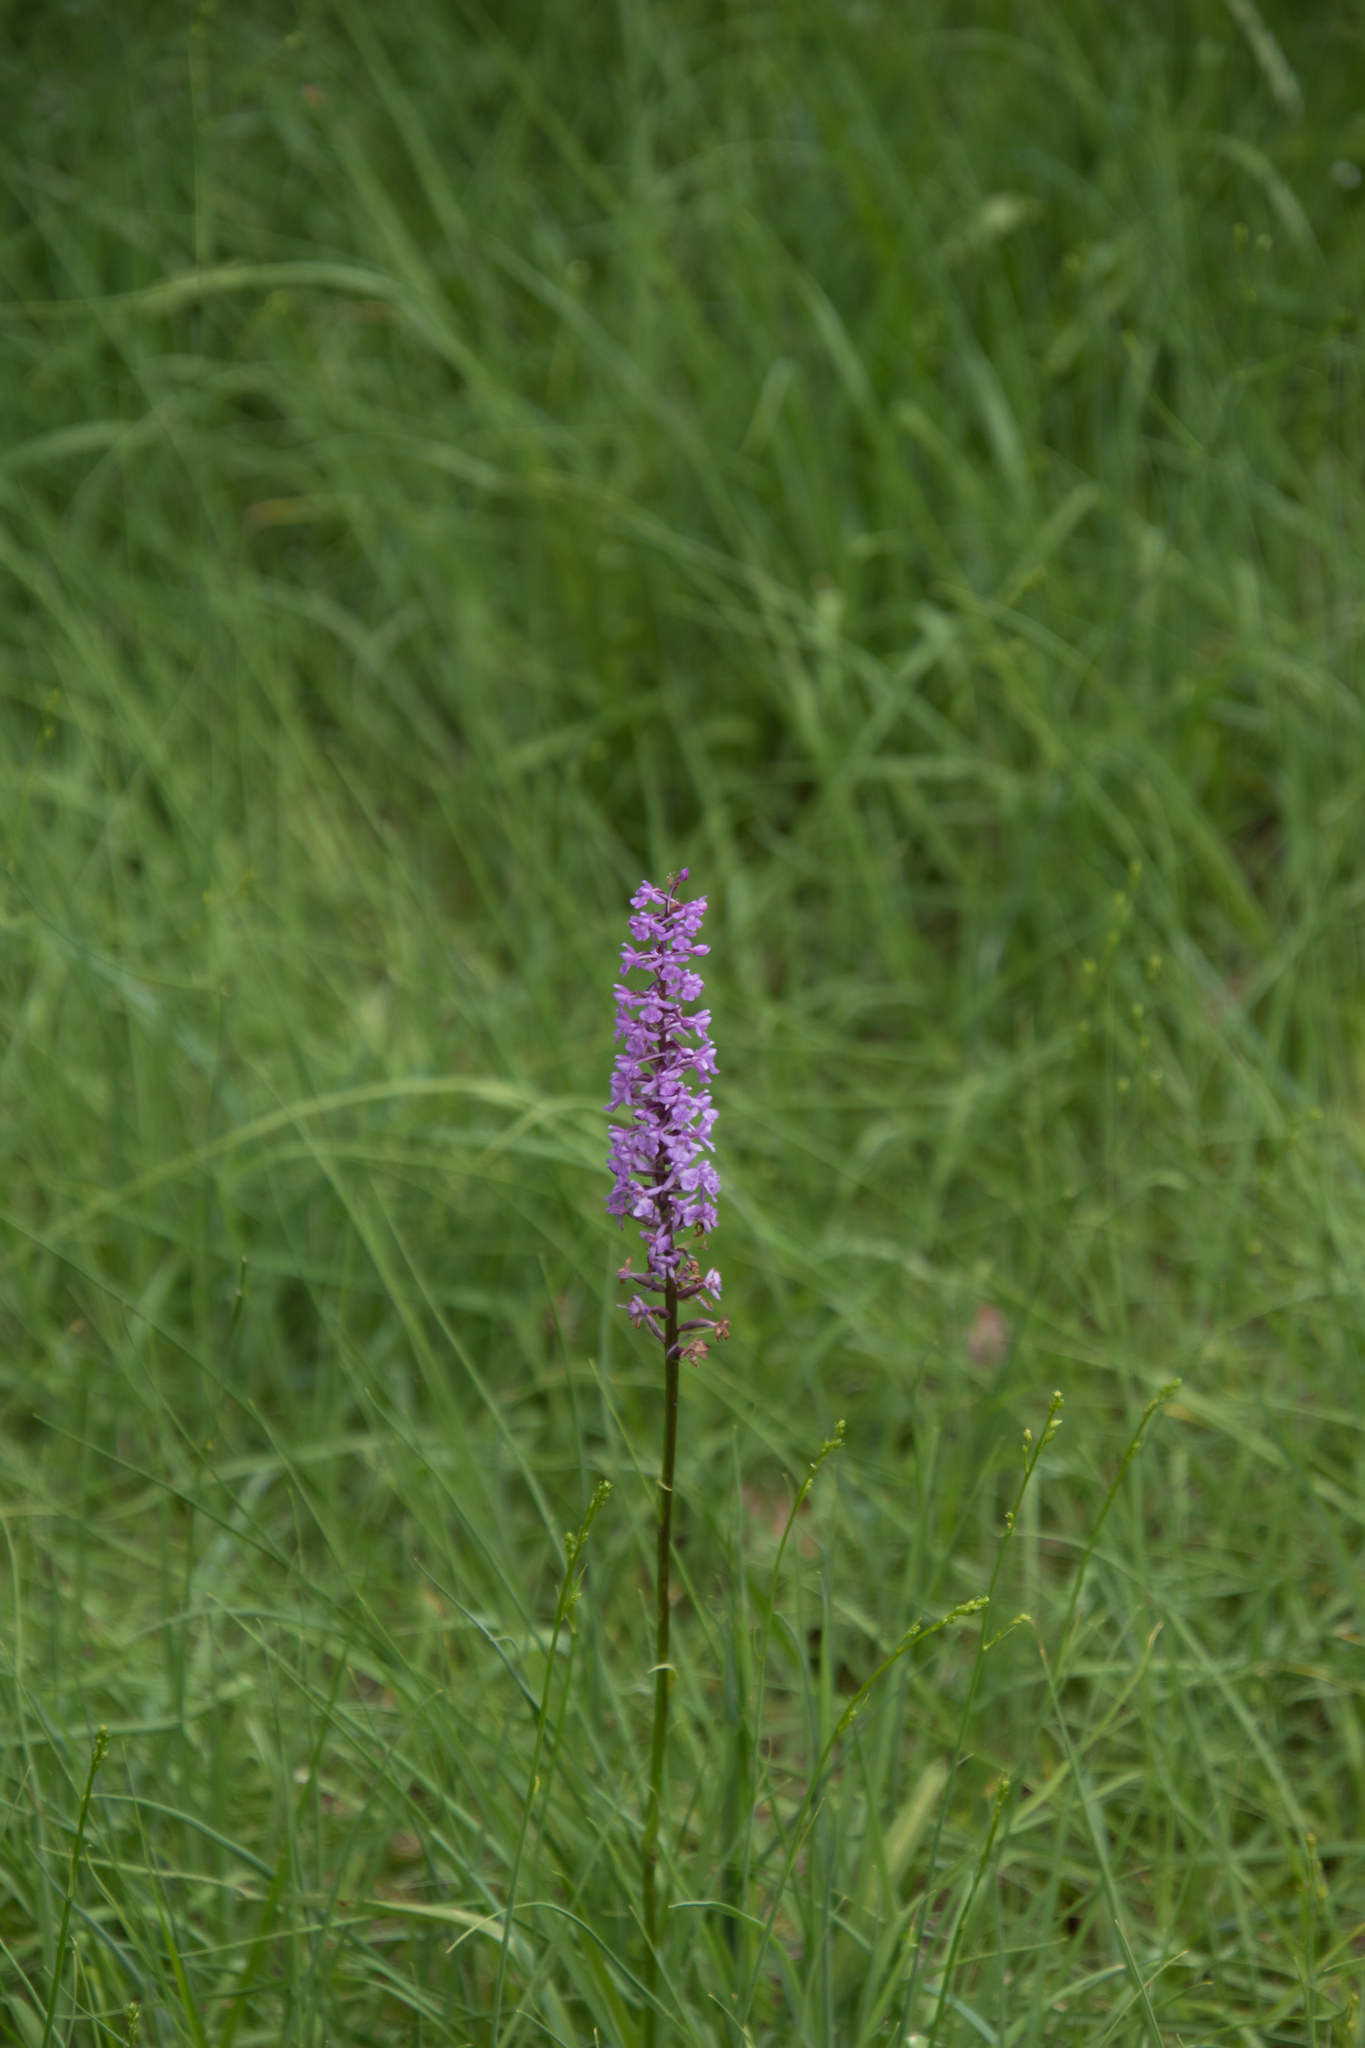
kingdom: Plantae
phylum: Tracheophyta
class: Liliopsida
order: Asparagales
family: Orchidaceae
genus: Gymnadenia
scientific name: Gymnadenia conopsea
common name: Fragrant orchid
